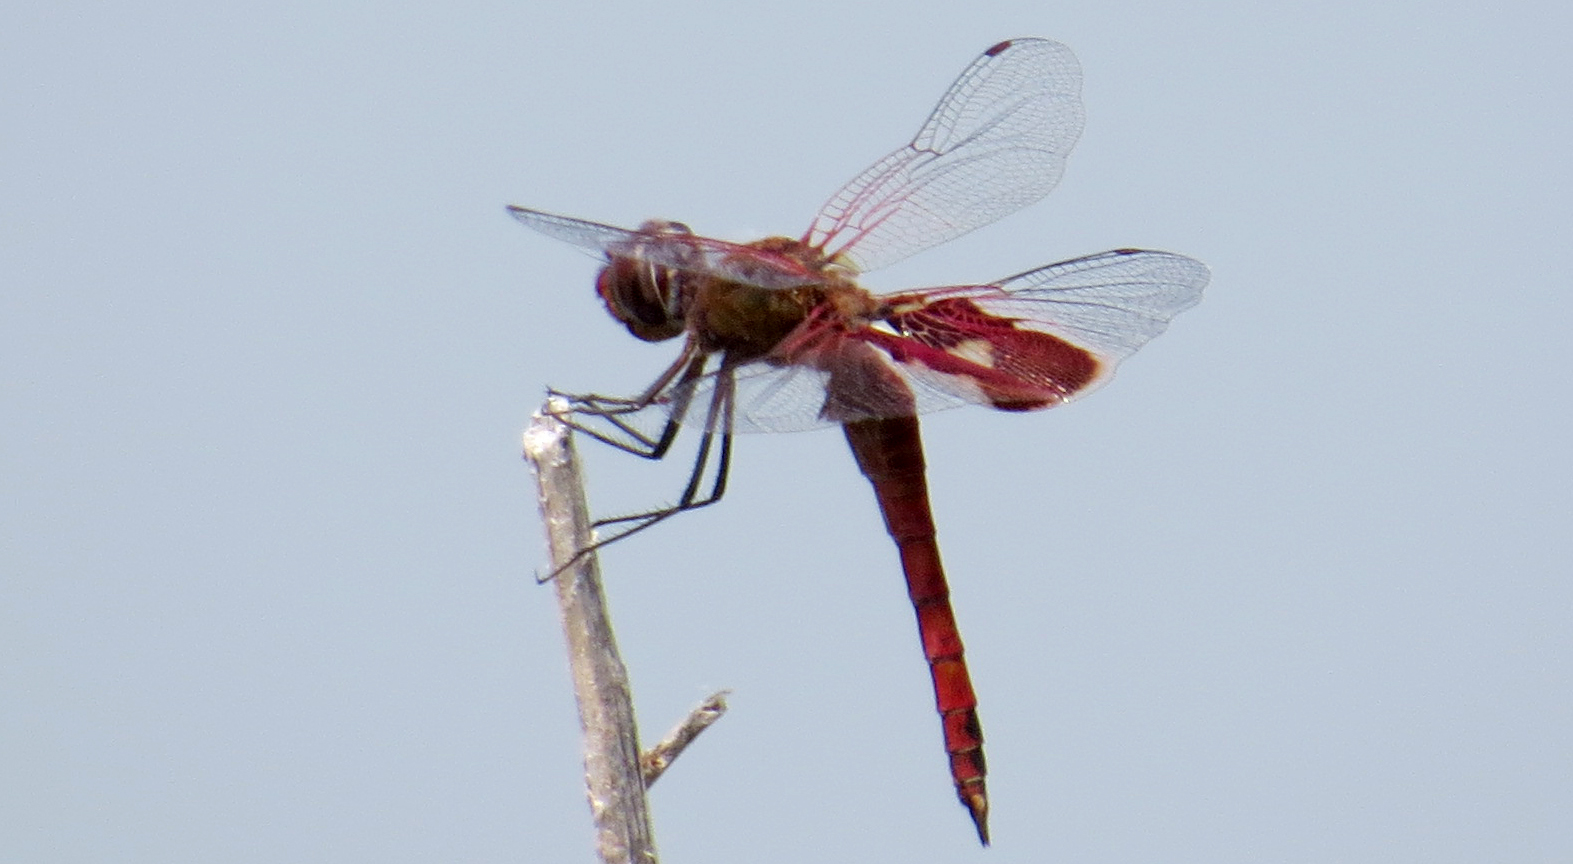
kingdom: Animalia
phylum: Arthropoda
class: Insecta
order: Odonata
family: Libellulidae
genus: Tramea
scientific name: Tramea onusta
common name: Red saddlebags
